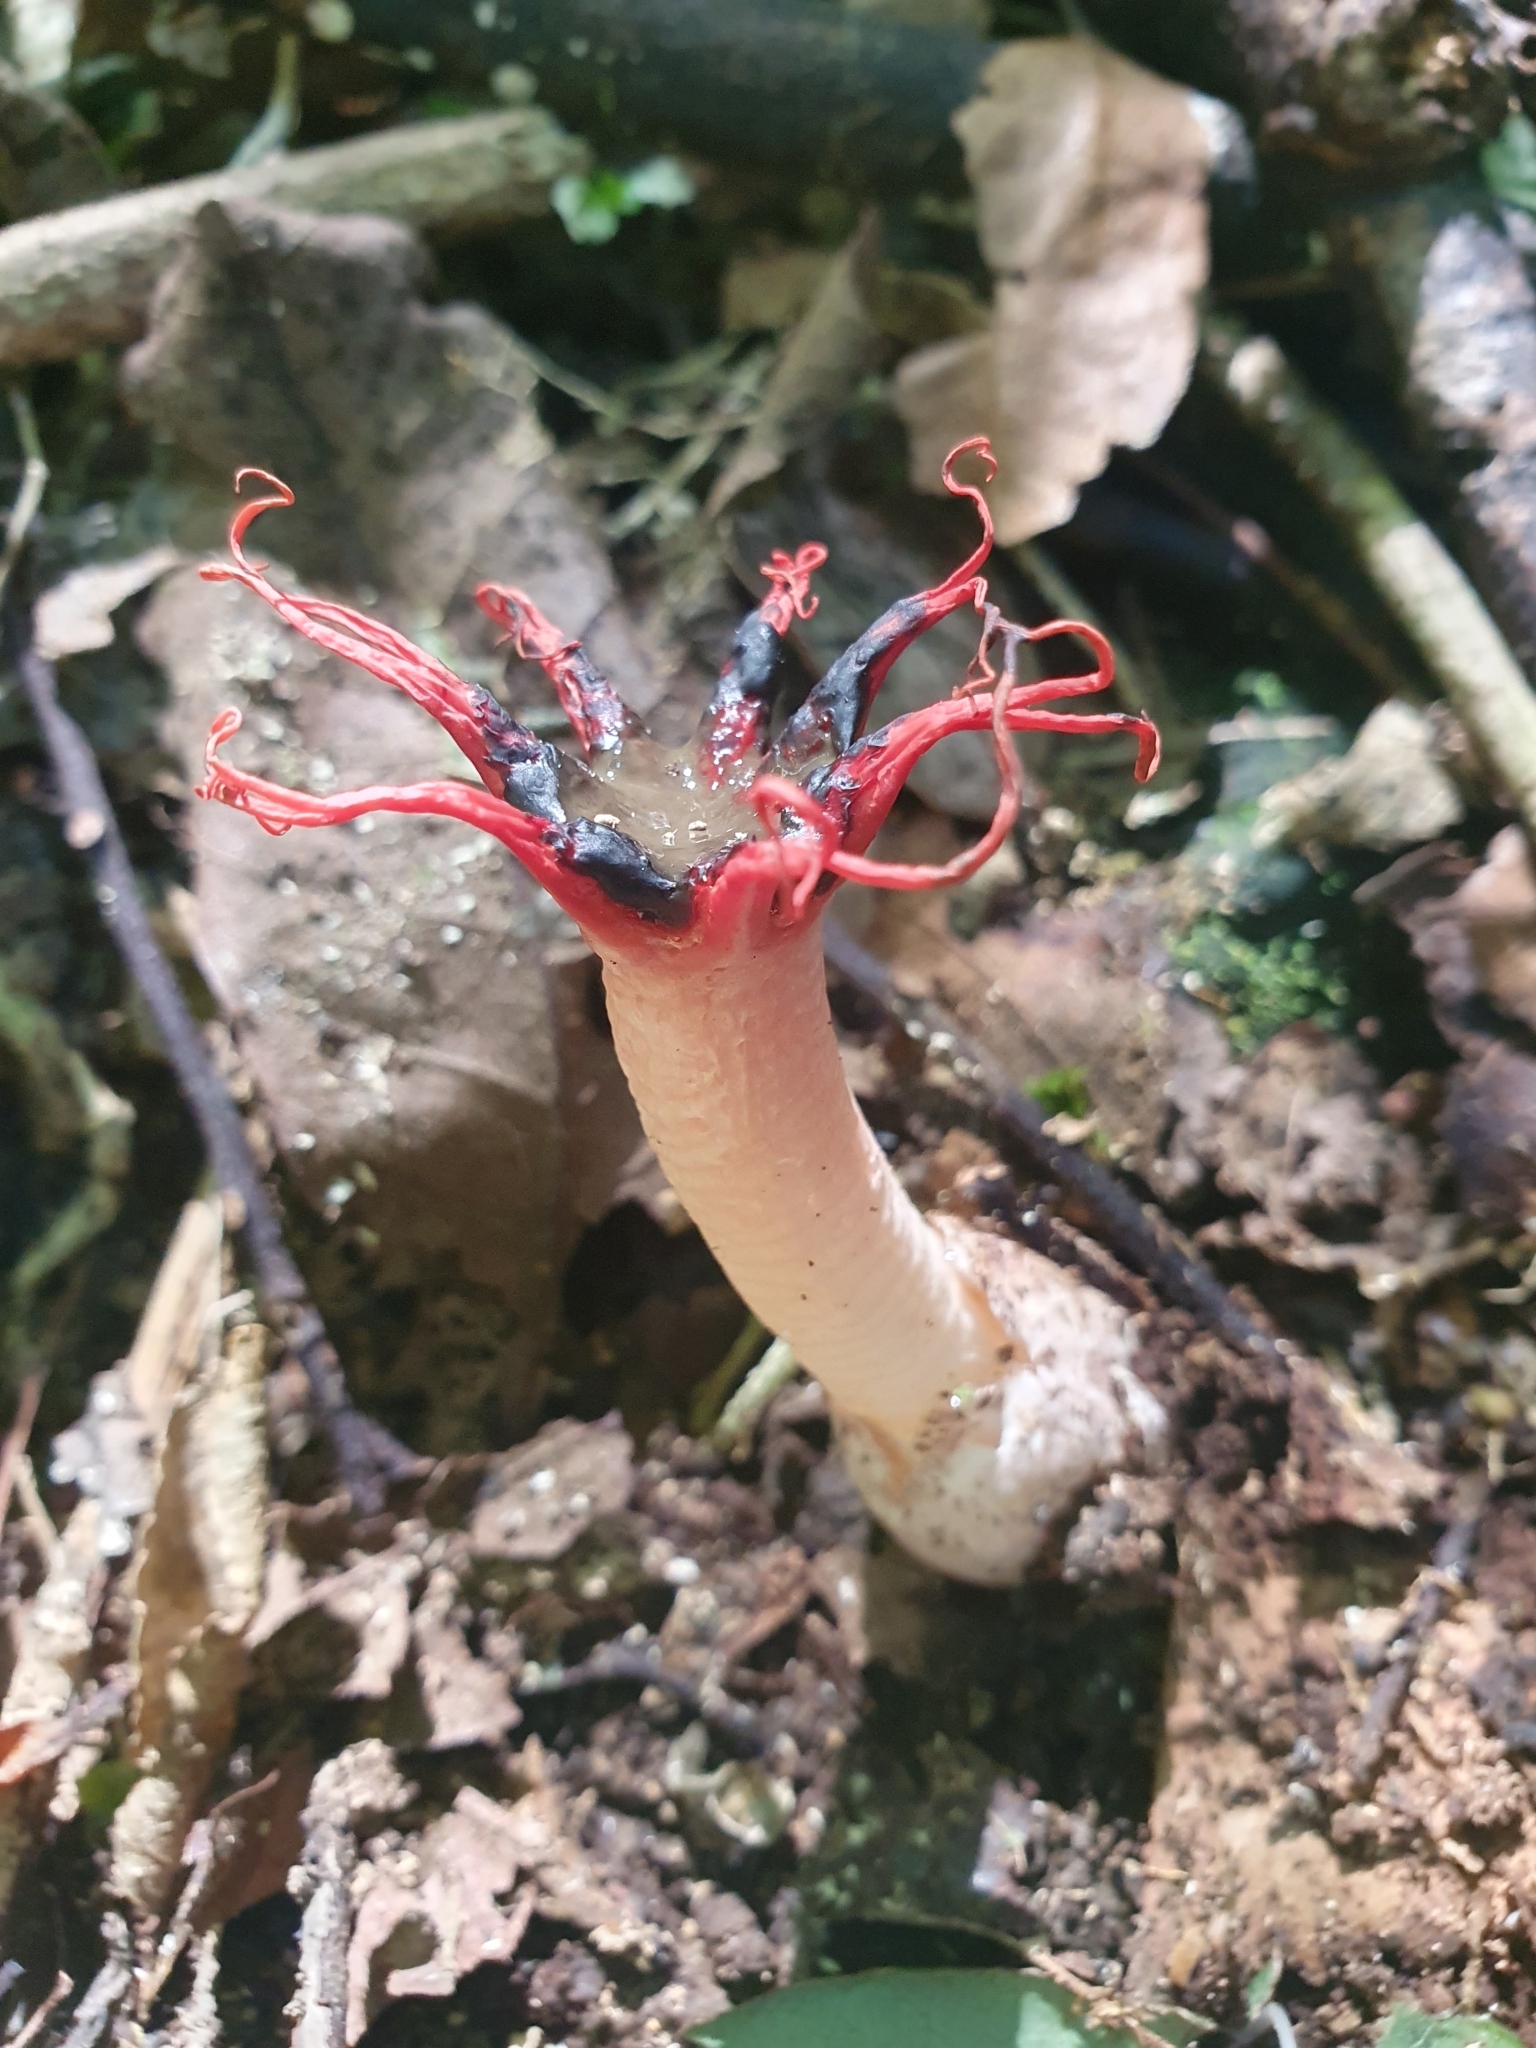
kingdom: Fungi
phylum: Basidiomycota
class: Agaricomycetes
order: Phallales
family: Phallaceae
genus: Aseroe
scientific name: Aseroe rubra
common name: Starfish fungus
